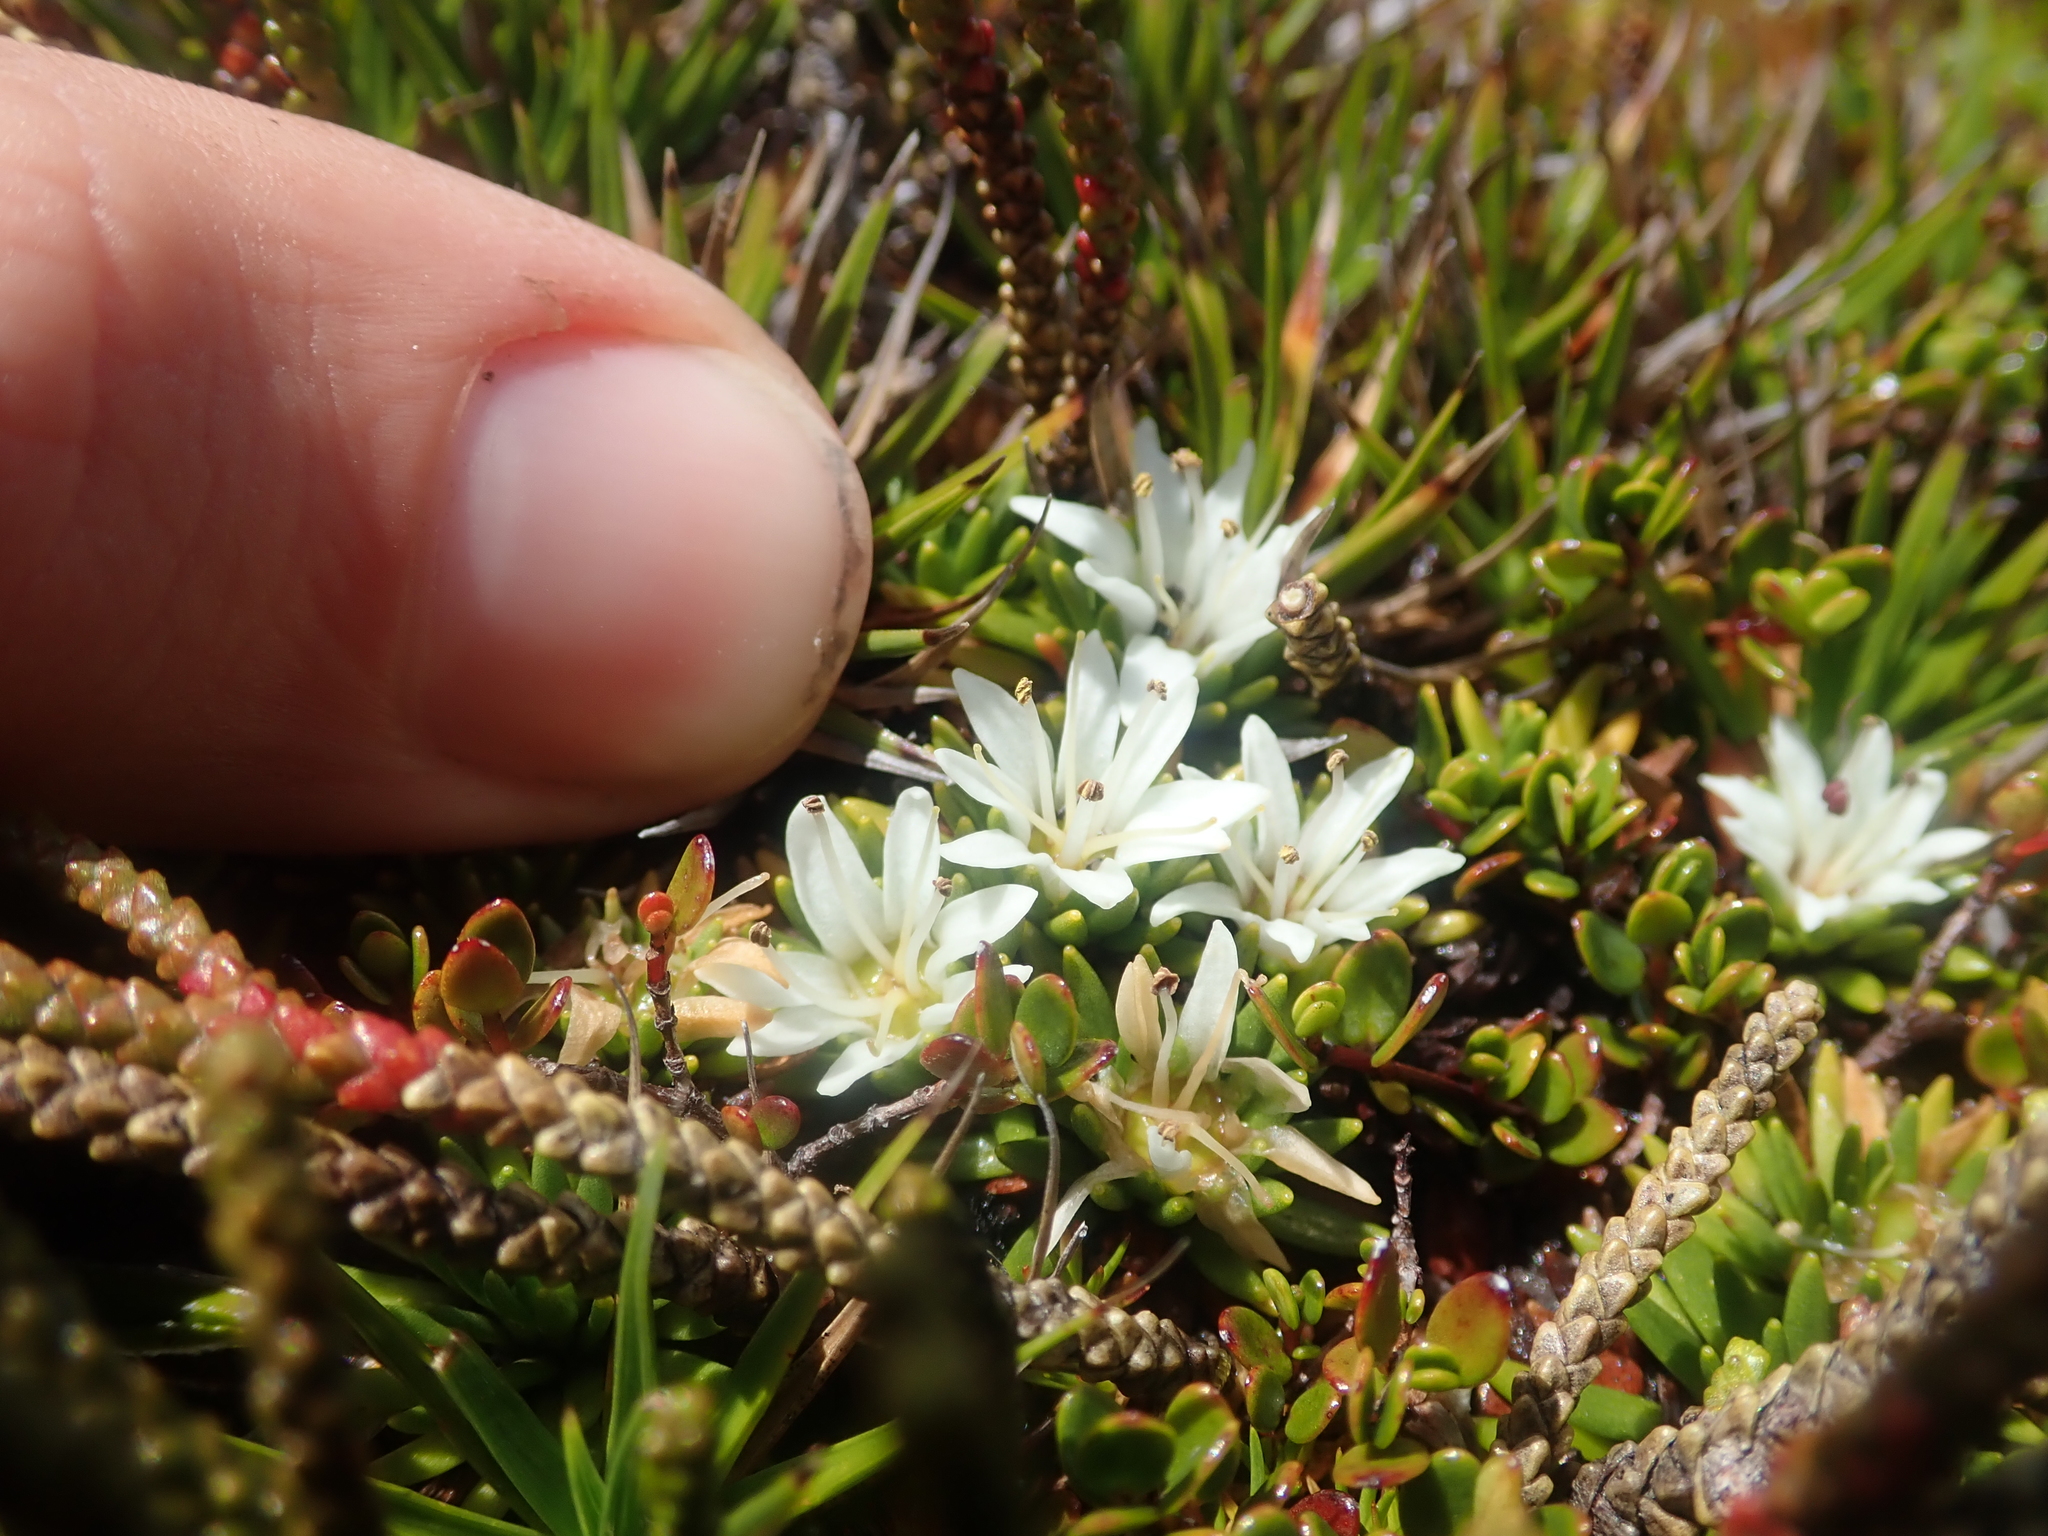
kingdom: Plantae
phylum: Tracheophyta
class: Magnoliopsida
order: Asterales
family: Stylidiaceae
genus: Donatia
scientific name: Donatia fascicularis
